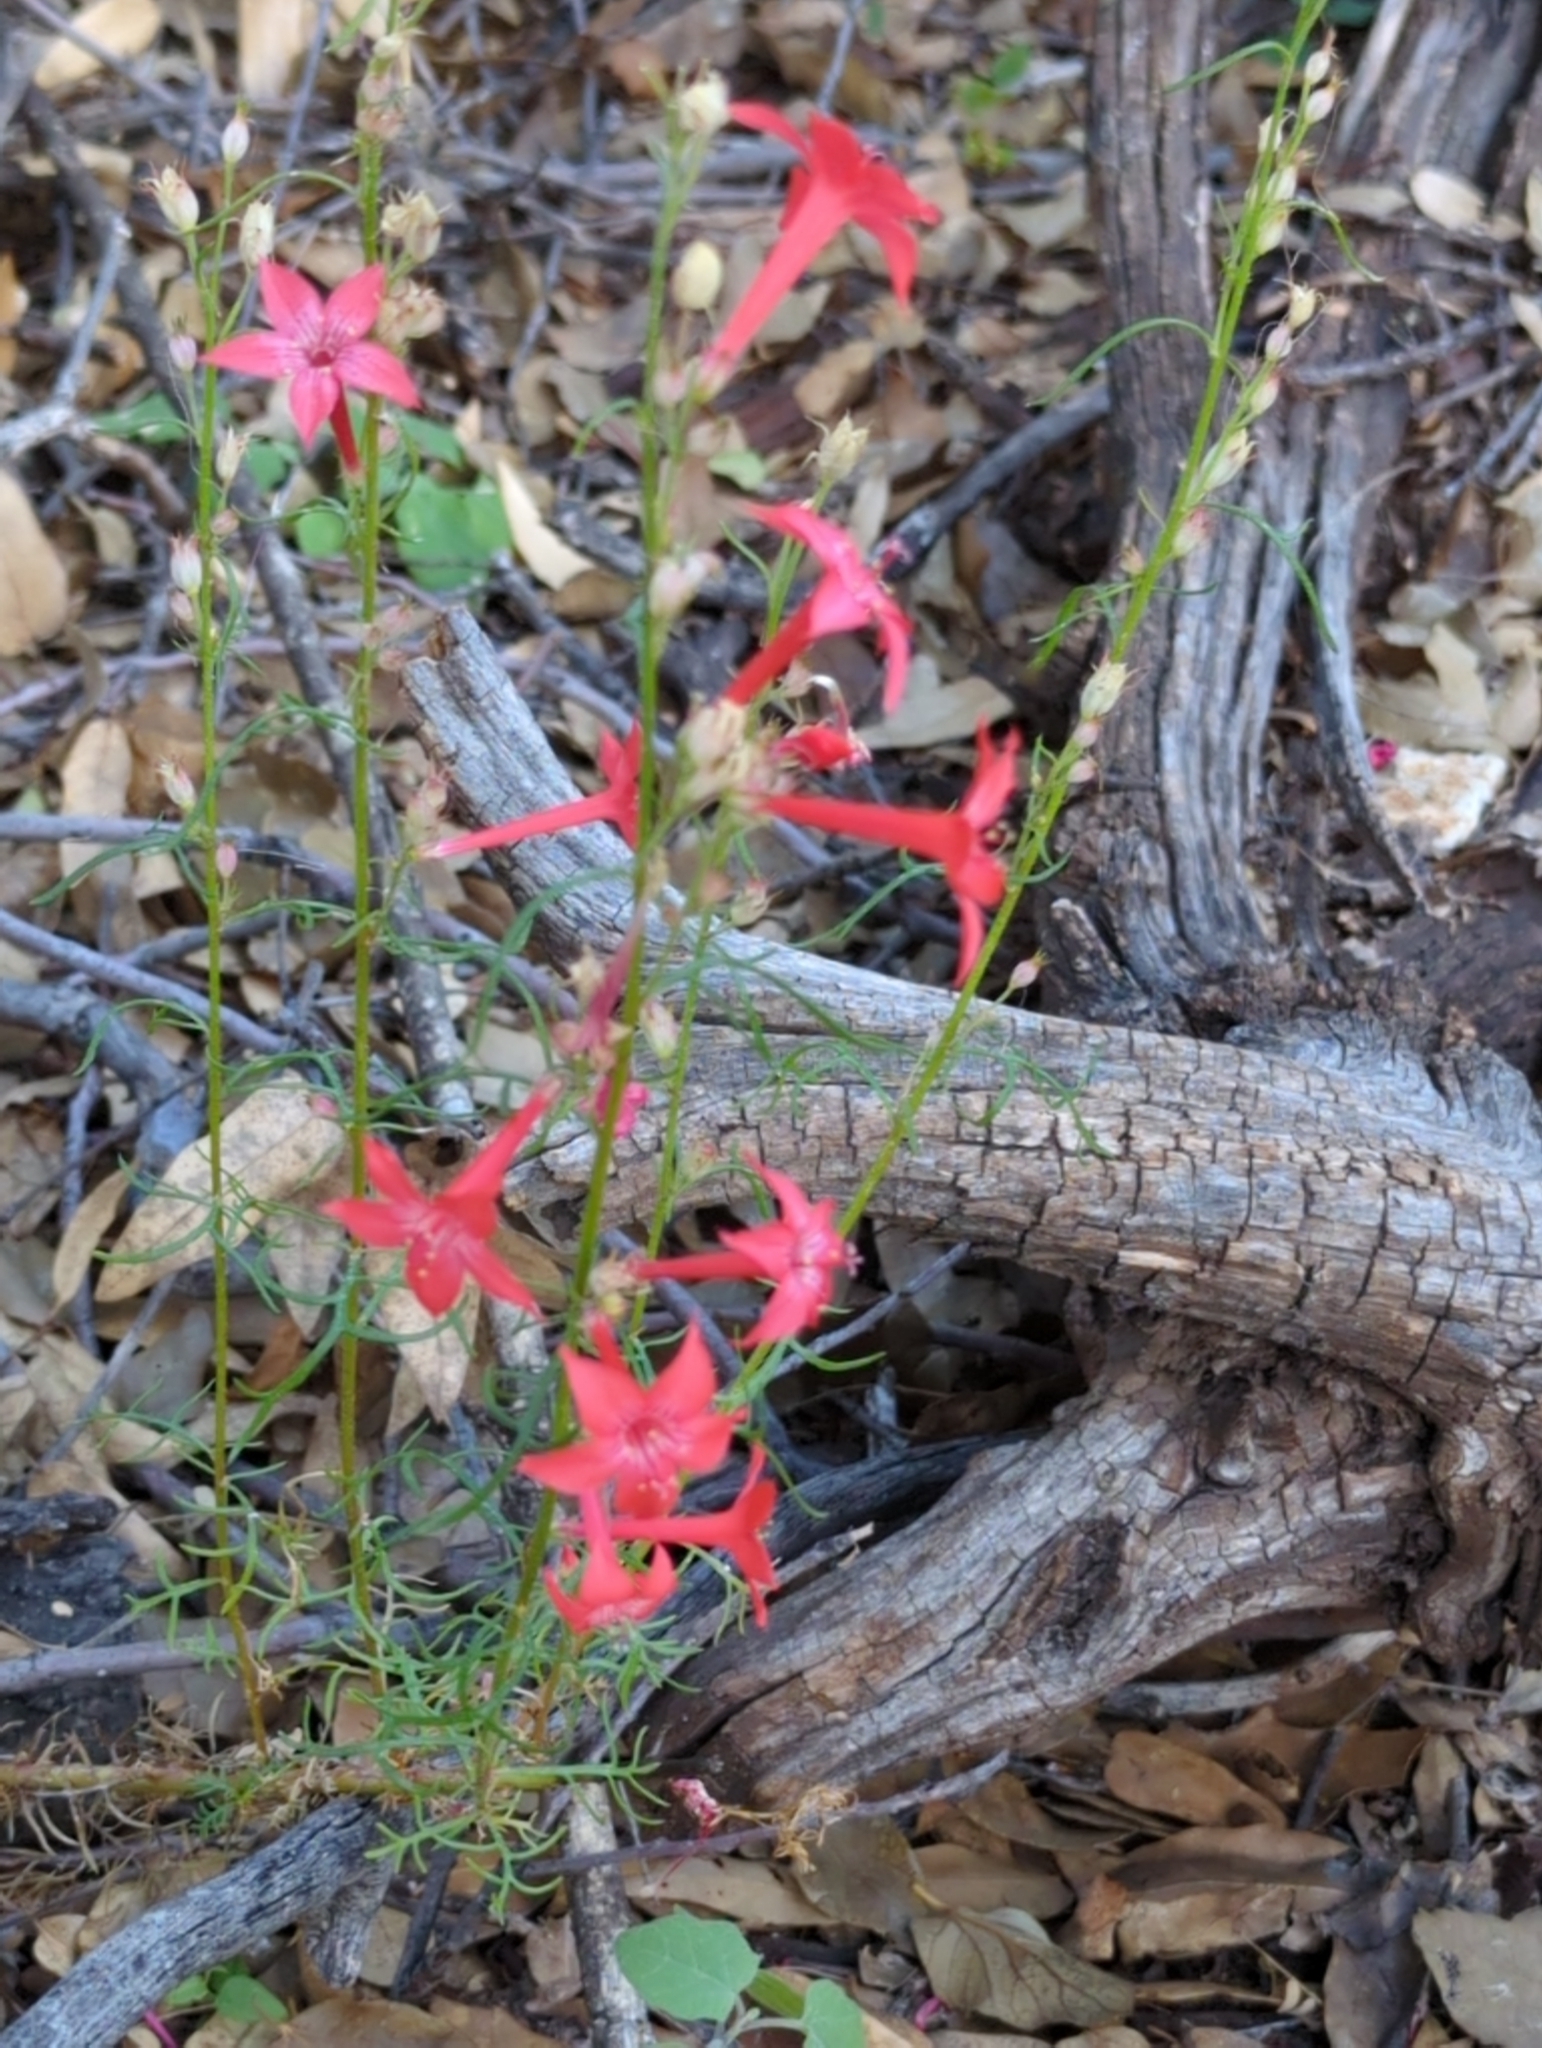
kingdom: Plantae
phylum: Tracheophyta
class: Magnoliopsida
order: Ericales
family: Polemoniaceae
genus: Ipomopsis
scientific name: Ipomopsis aggregata
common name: Scarlet gilia
